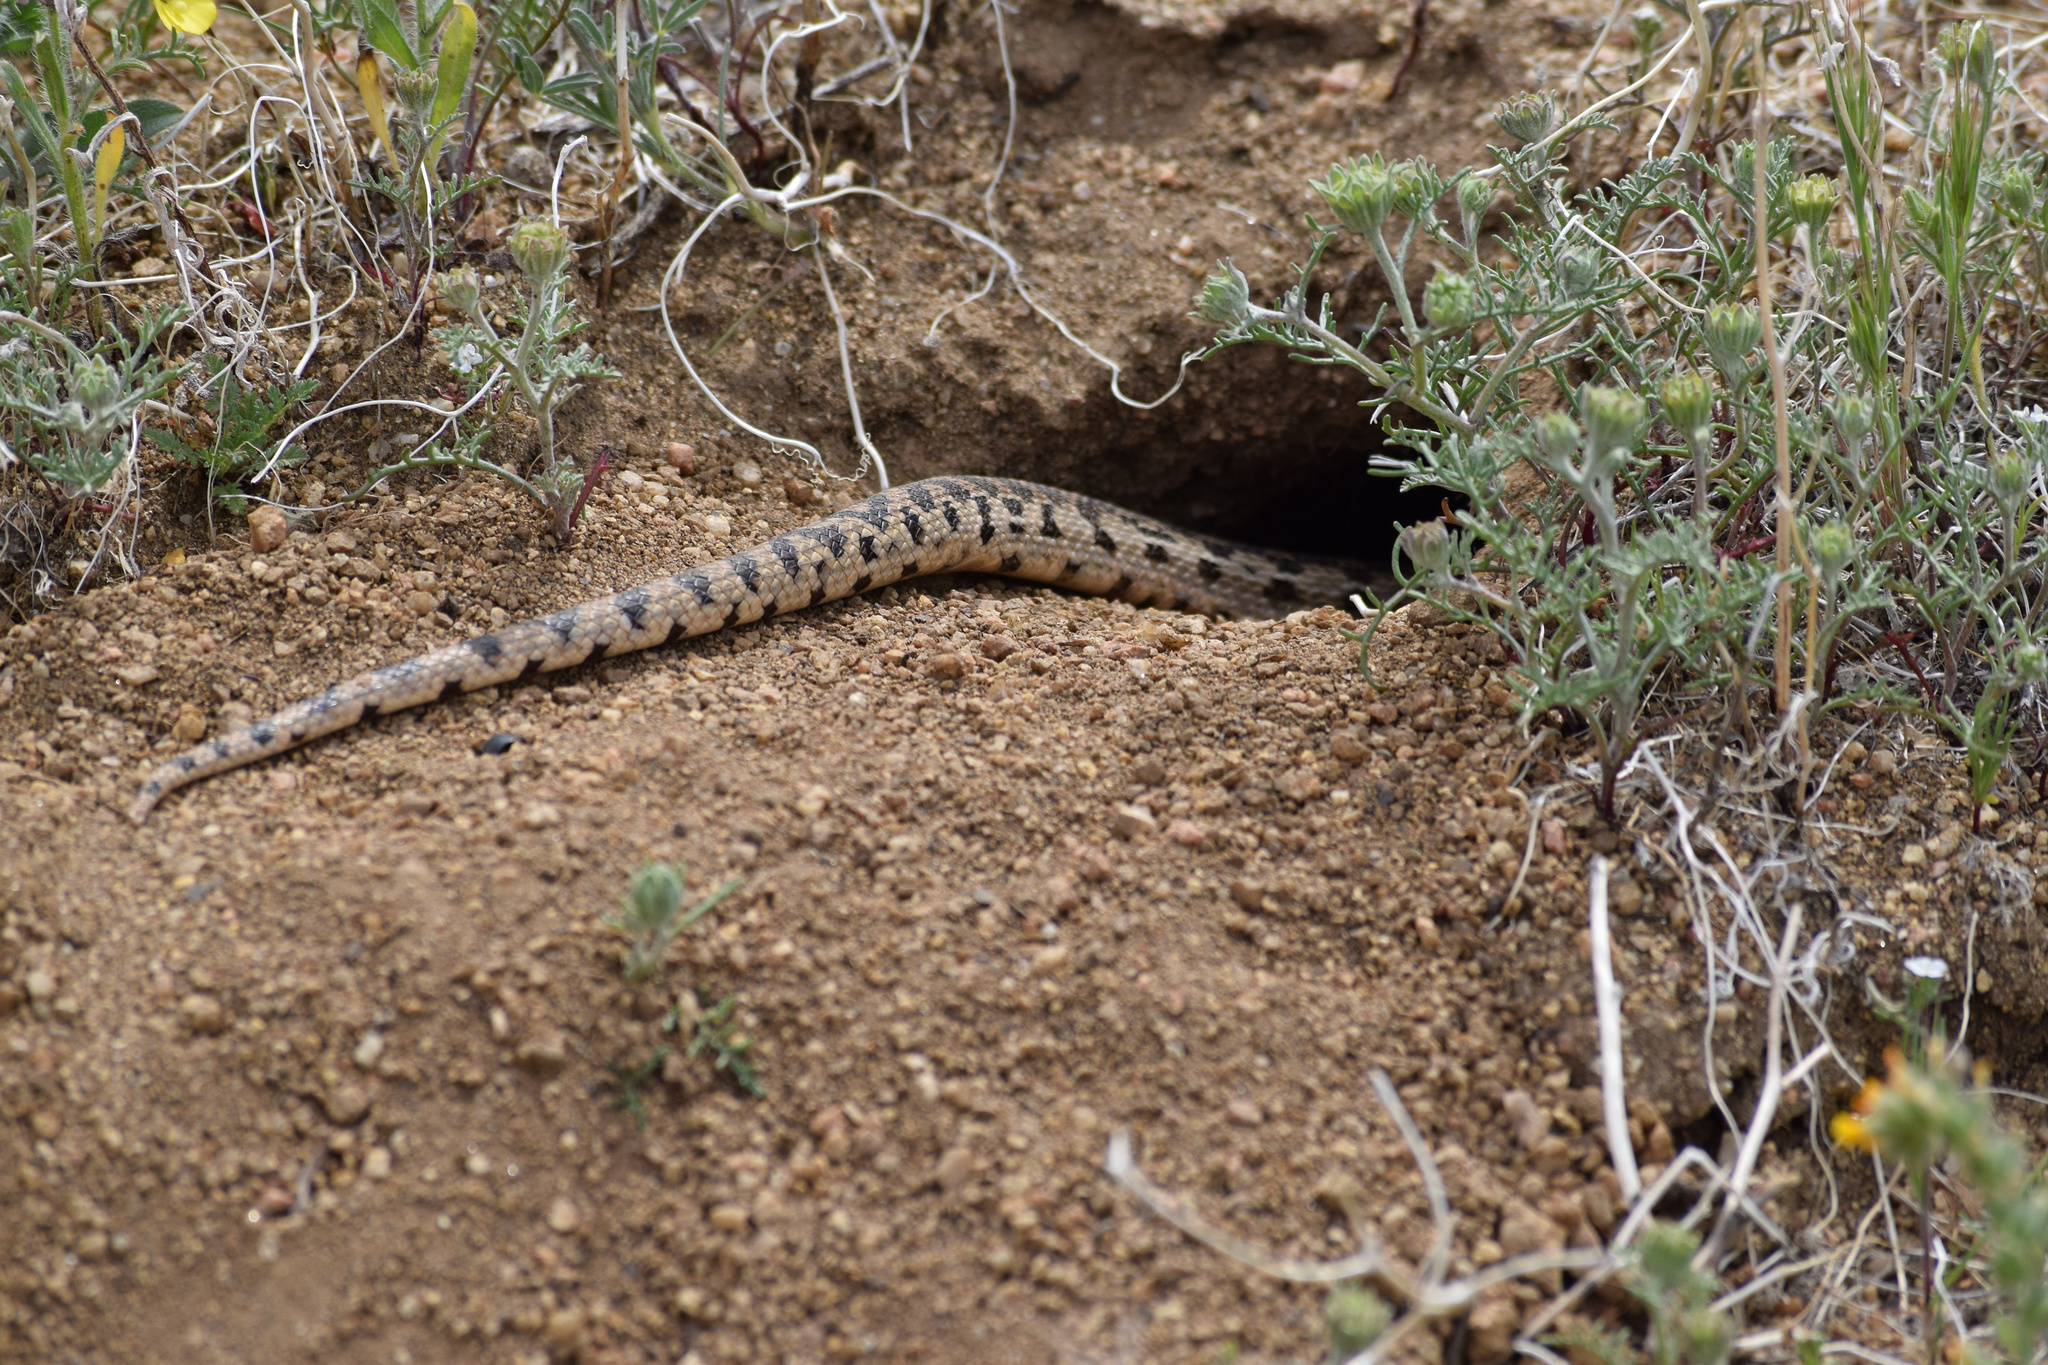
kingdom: Animalia
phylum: Chordata
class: Squamata
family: Colubridae
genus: Pituophis
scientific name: Pituophis catenifer
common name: Gopher snake
